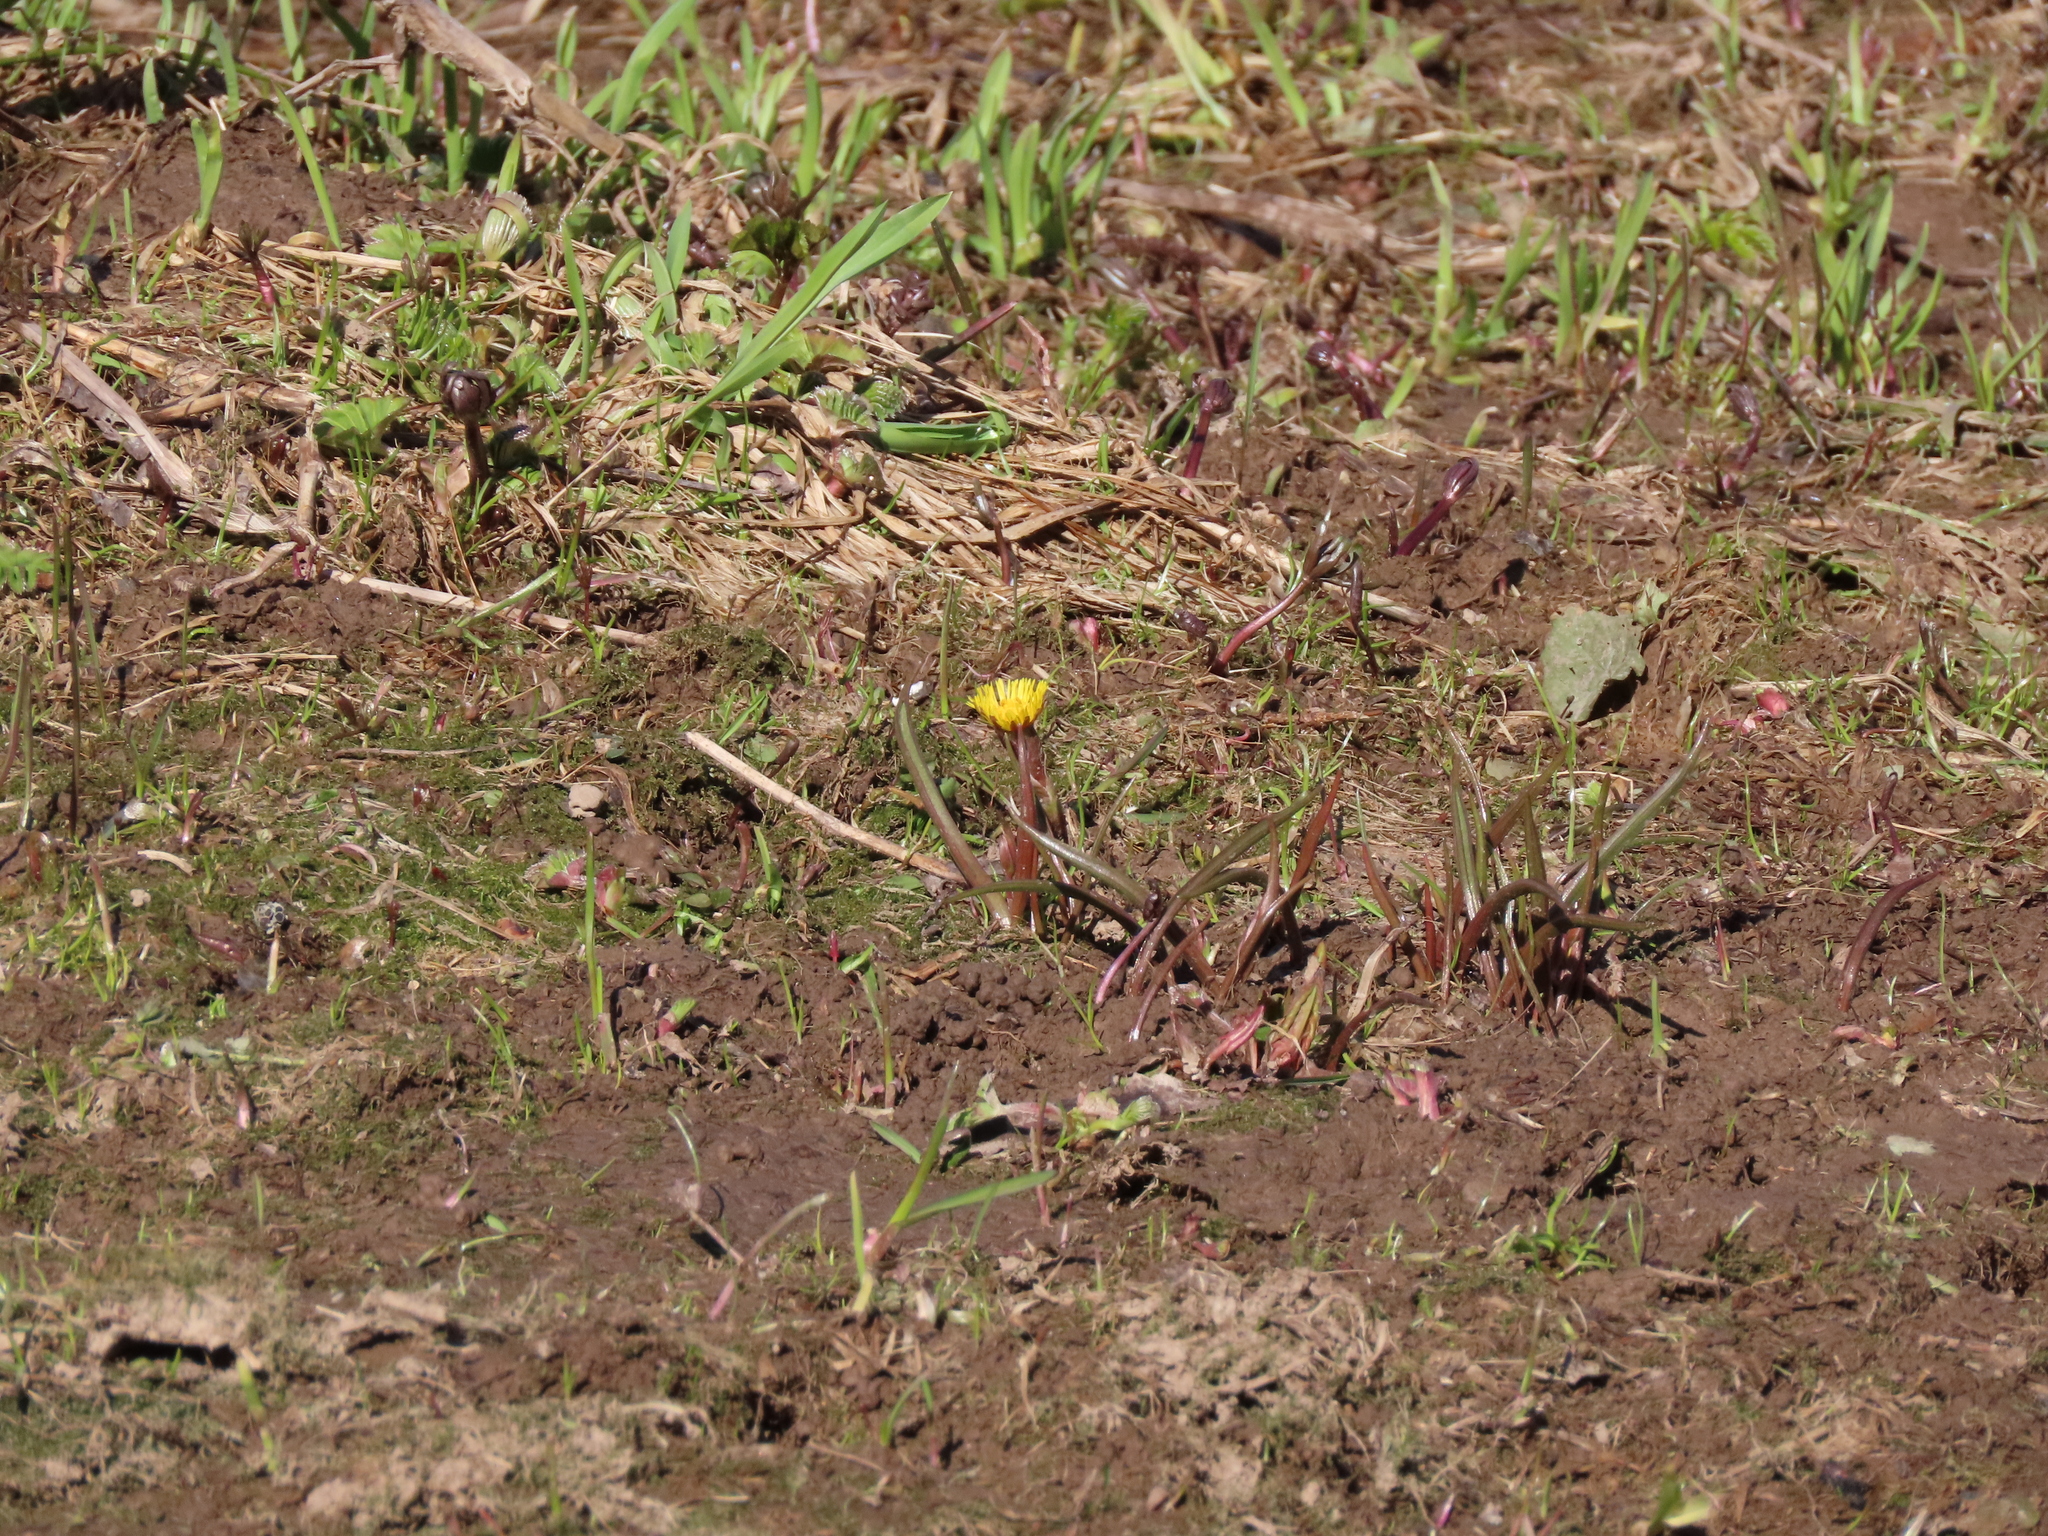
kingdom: Plantae
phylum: Tracheophyta
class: Magnoliopsida
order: Asterales
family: Asteraceae
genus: Tussilago
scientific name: Tussilago farfara
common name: Coltsfoot
